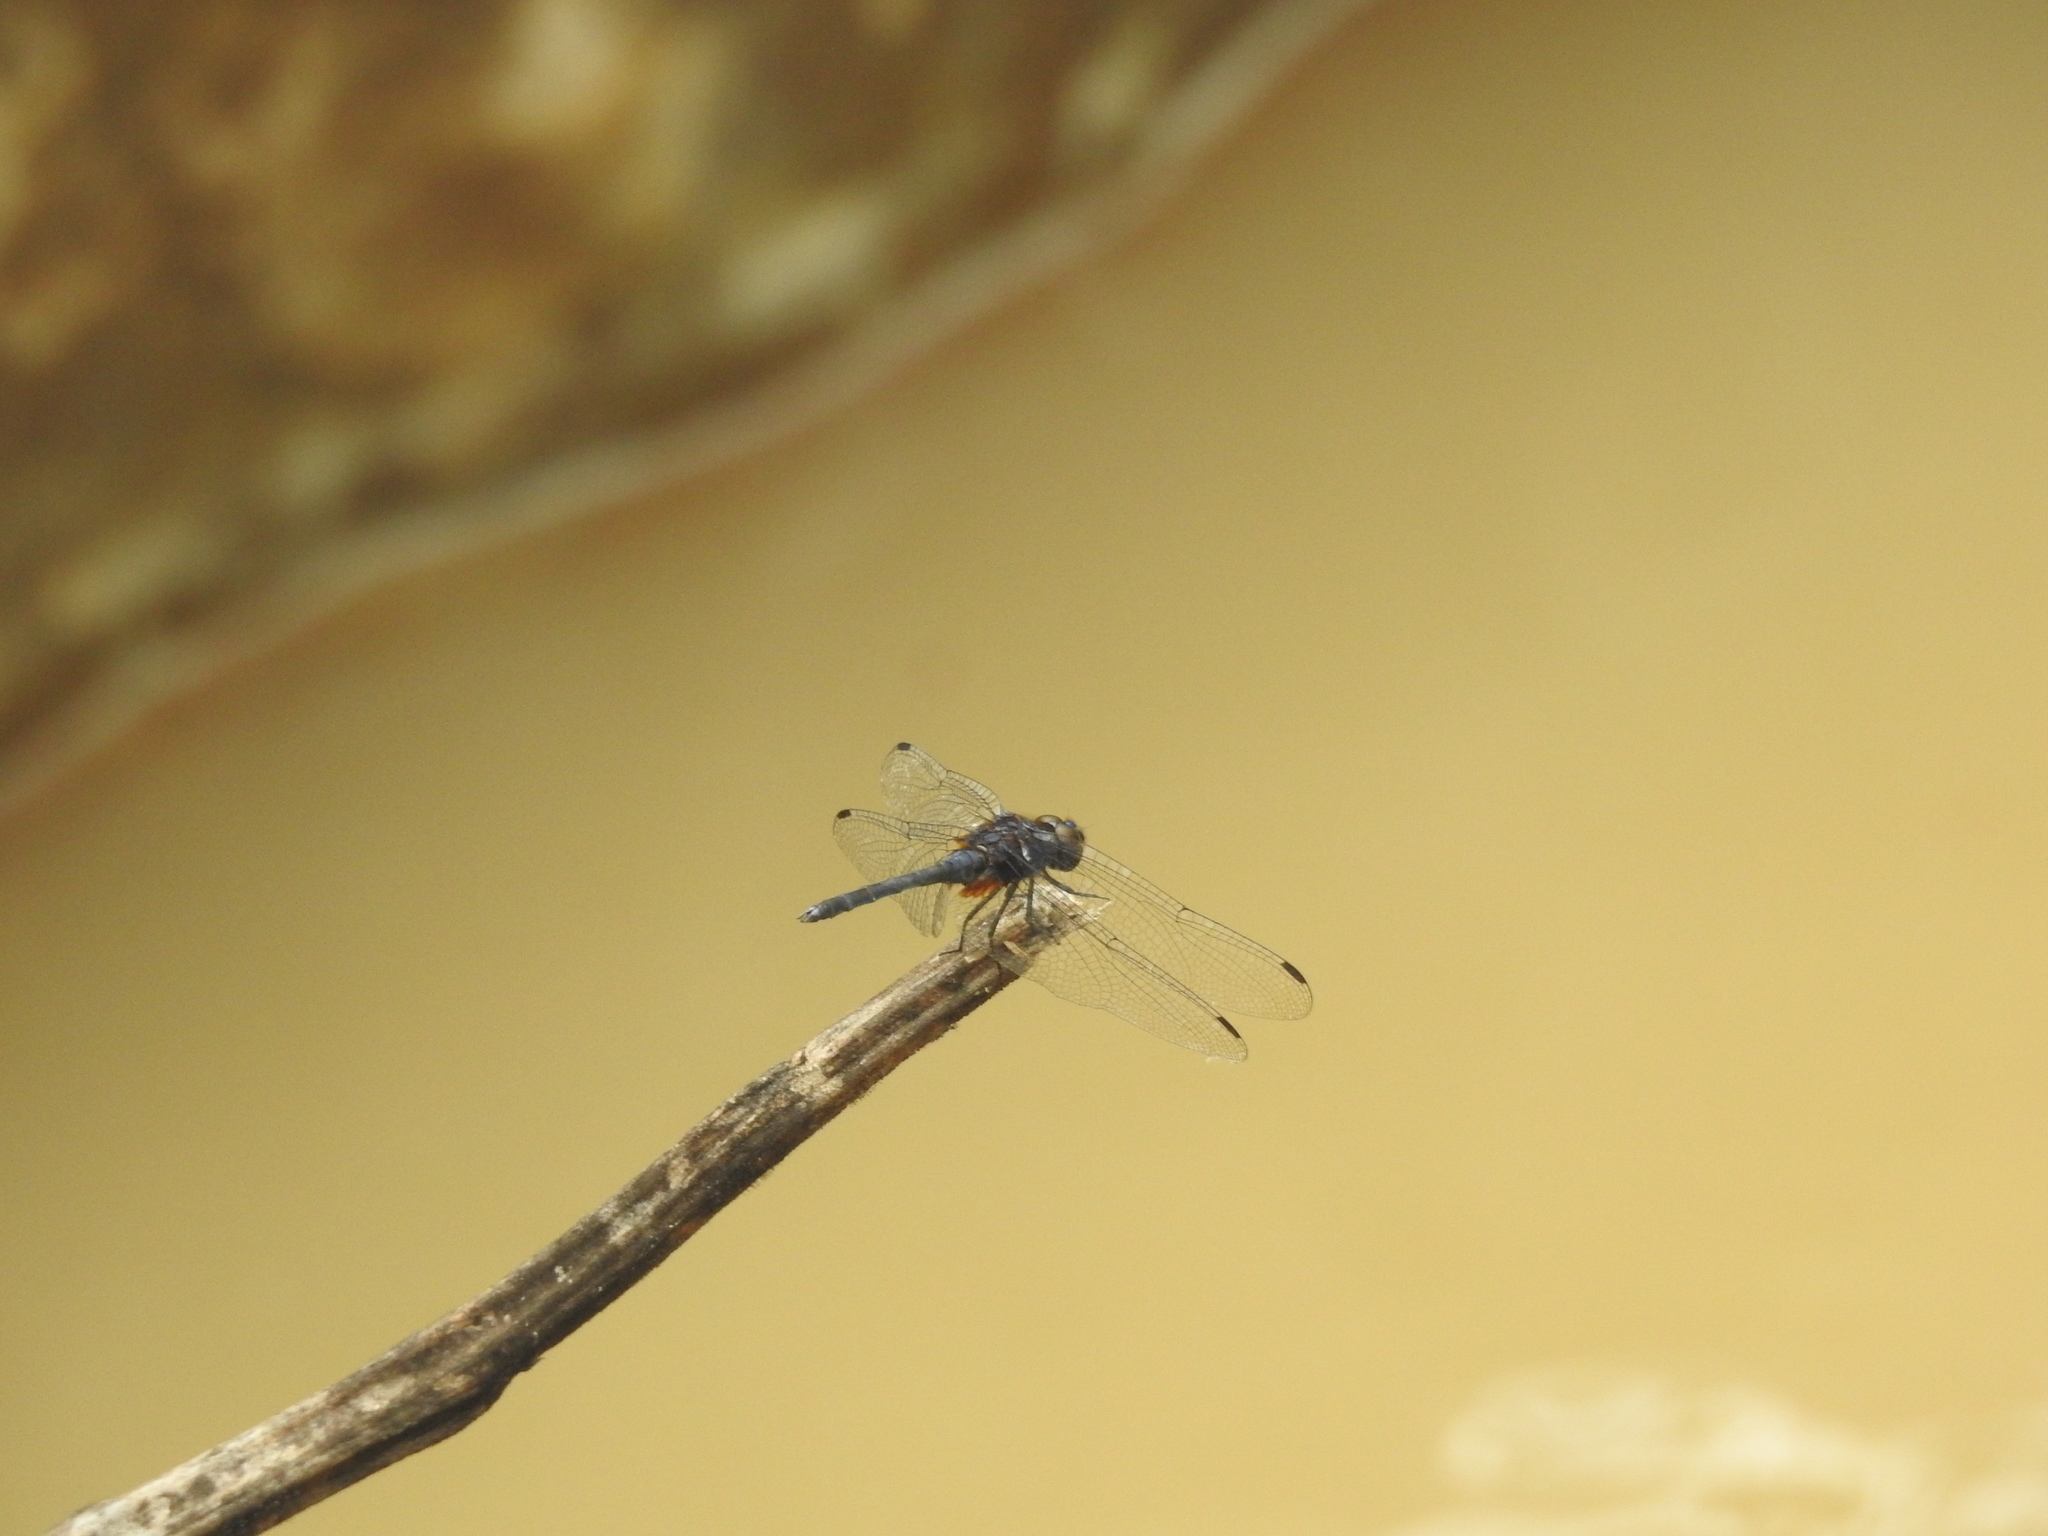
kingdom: Animalia
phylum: Arthropoda
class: Insecta
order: Odonata
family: Libellulidae
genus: Trithemis
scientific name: Trithemis festiva
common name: Indigo dropwing
